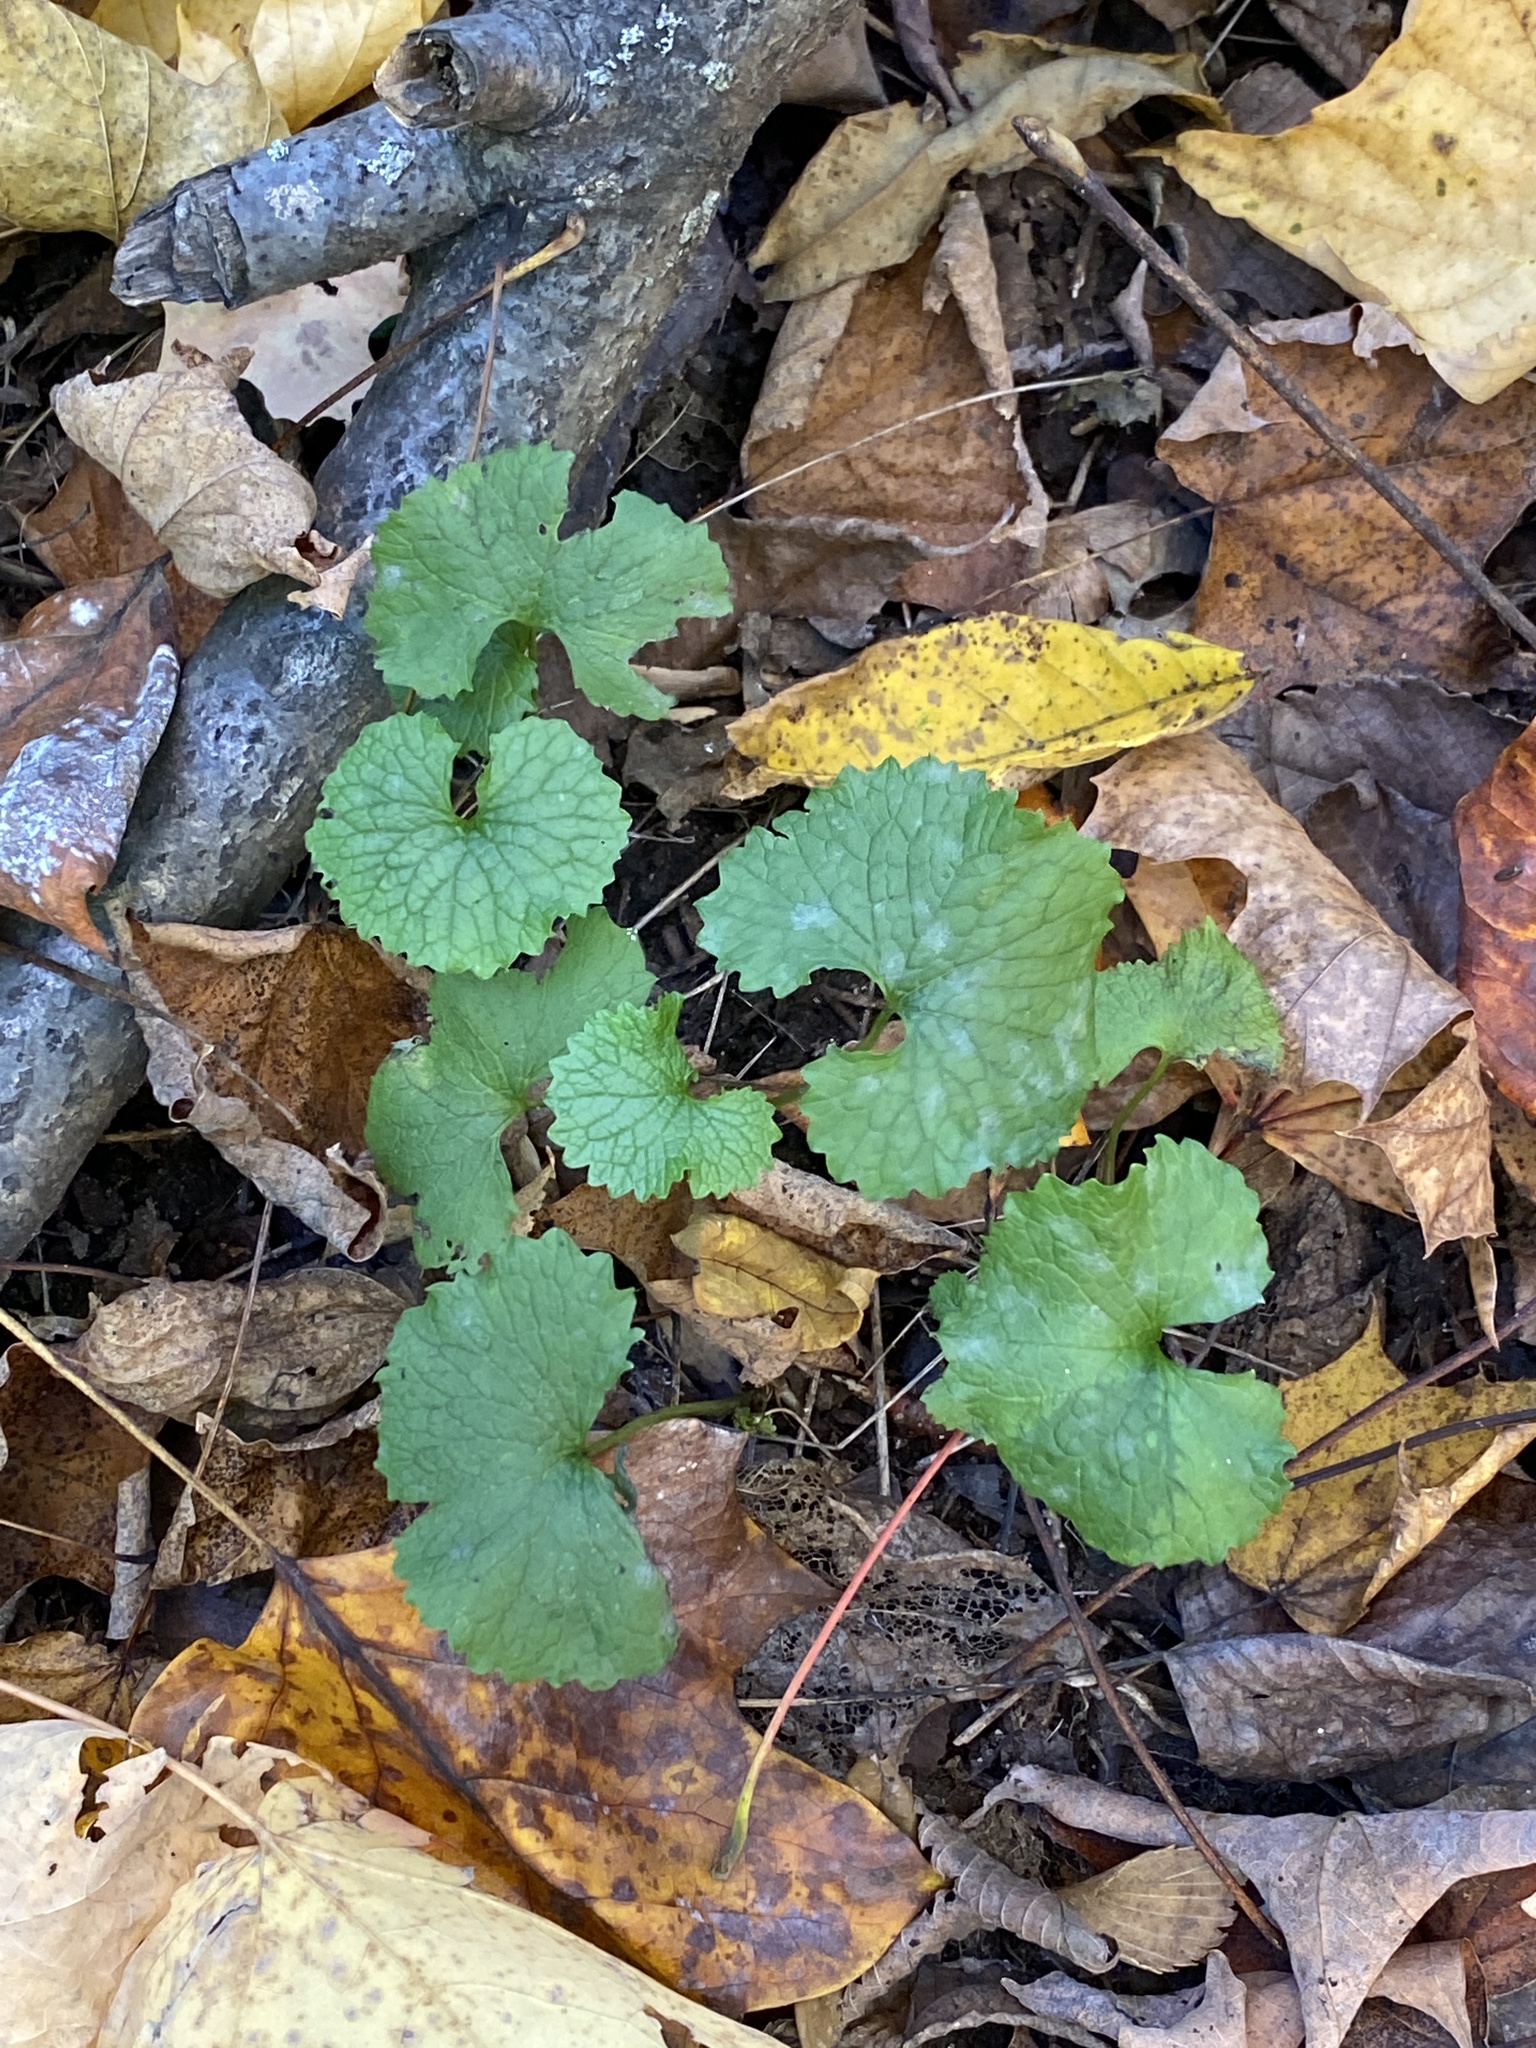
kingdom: Plantae
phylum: Tracheophyta
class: Magnoliopsida
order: Brassicales
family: Brassicaceae
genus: Alliaria
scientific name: Alliaria petiolata
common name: Garlic mustard
